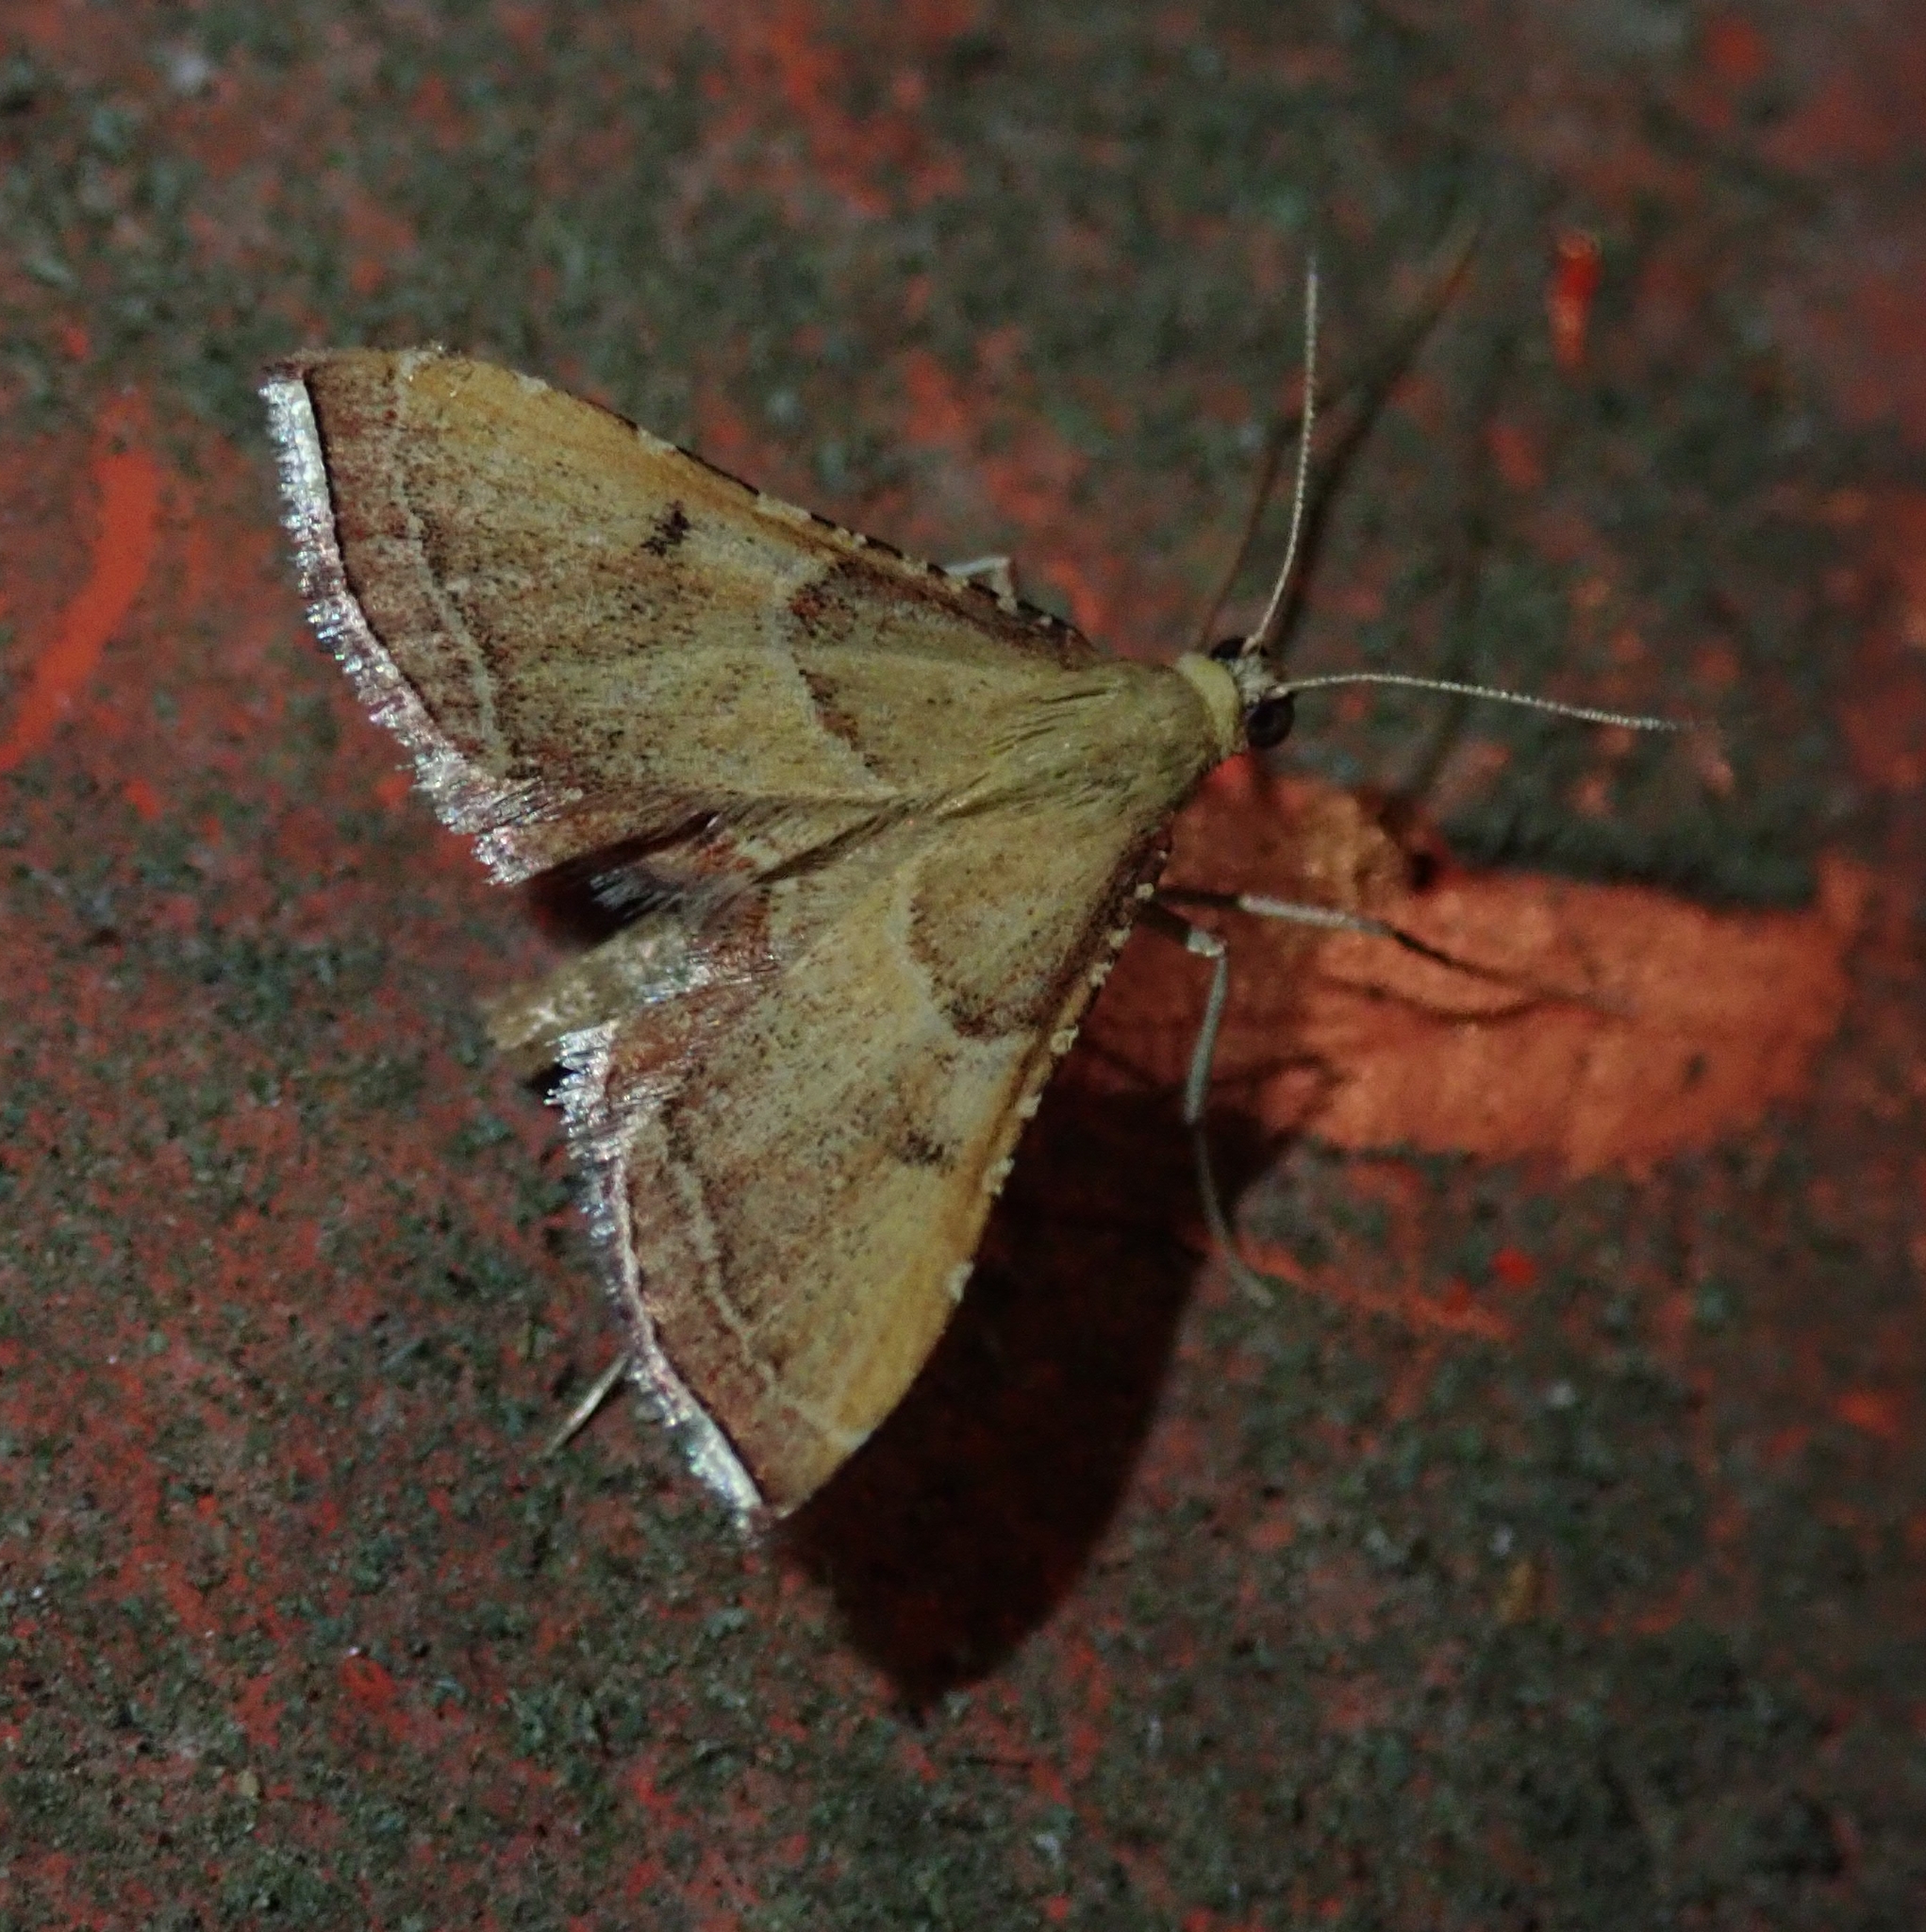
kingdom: Animalia
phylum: Arthropoda
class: Insecta
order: Lepidoptera
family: Pyralidae
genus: Endotricha
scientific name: Endotricha flammealis
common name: Rosy tabby
